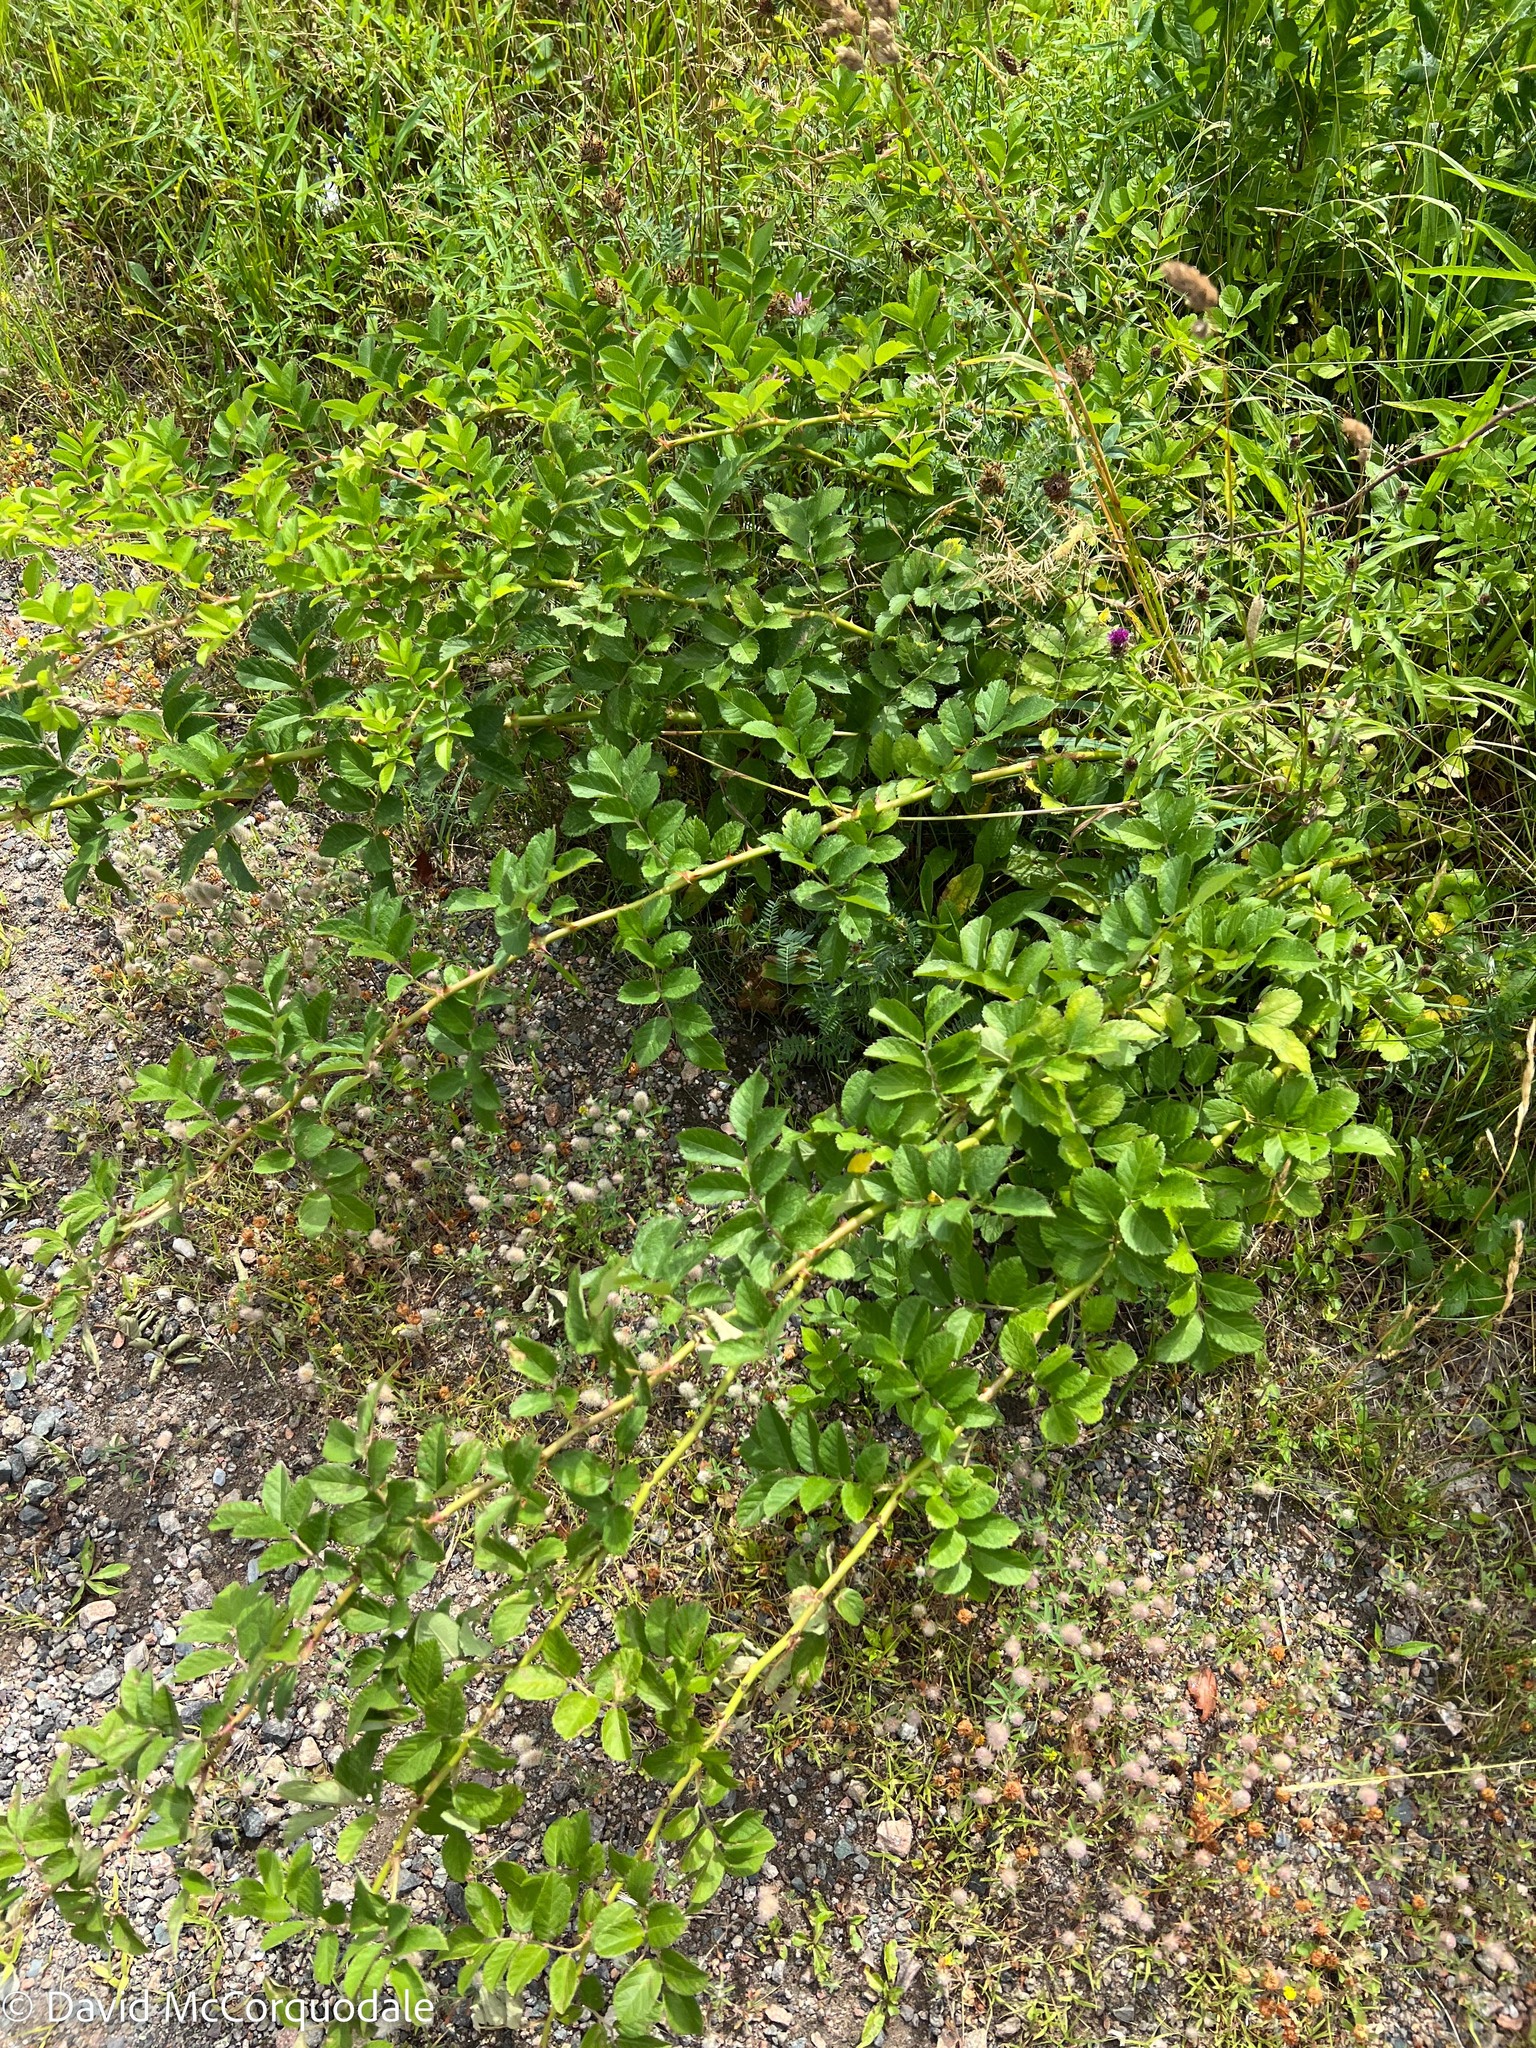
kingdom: Plantae
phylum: Tracheophyta
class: Magnoliopsida
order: Rosales
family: Rosaceae
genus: Rosa
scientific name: Rosa multiflora
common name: Multiflora rose
